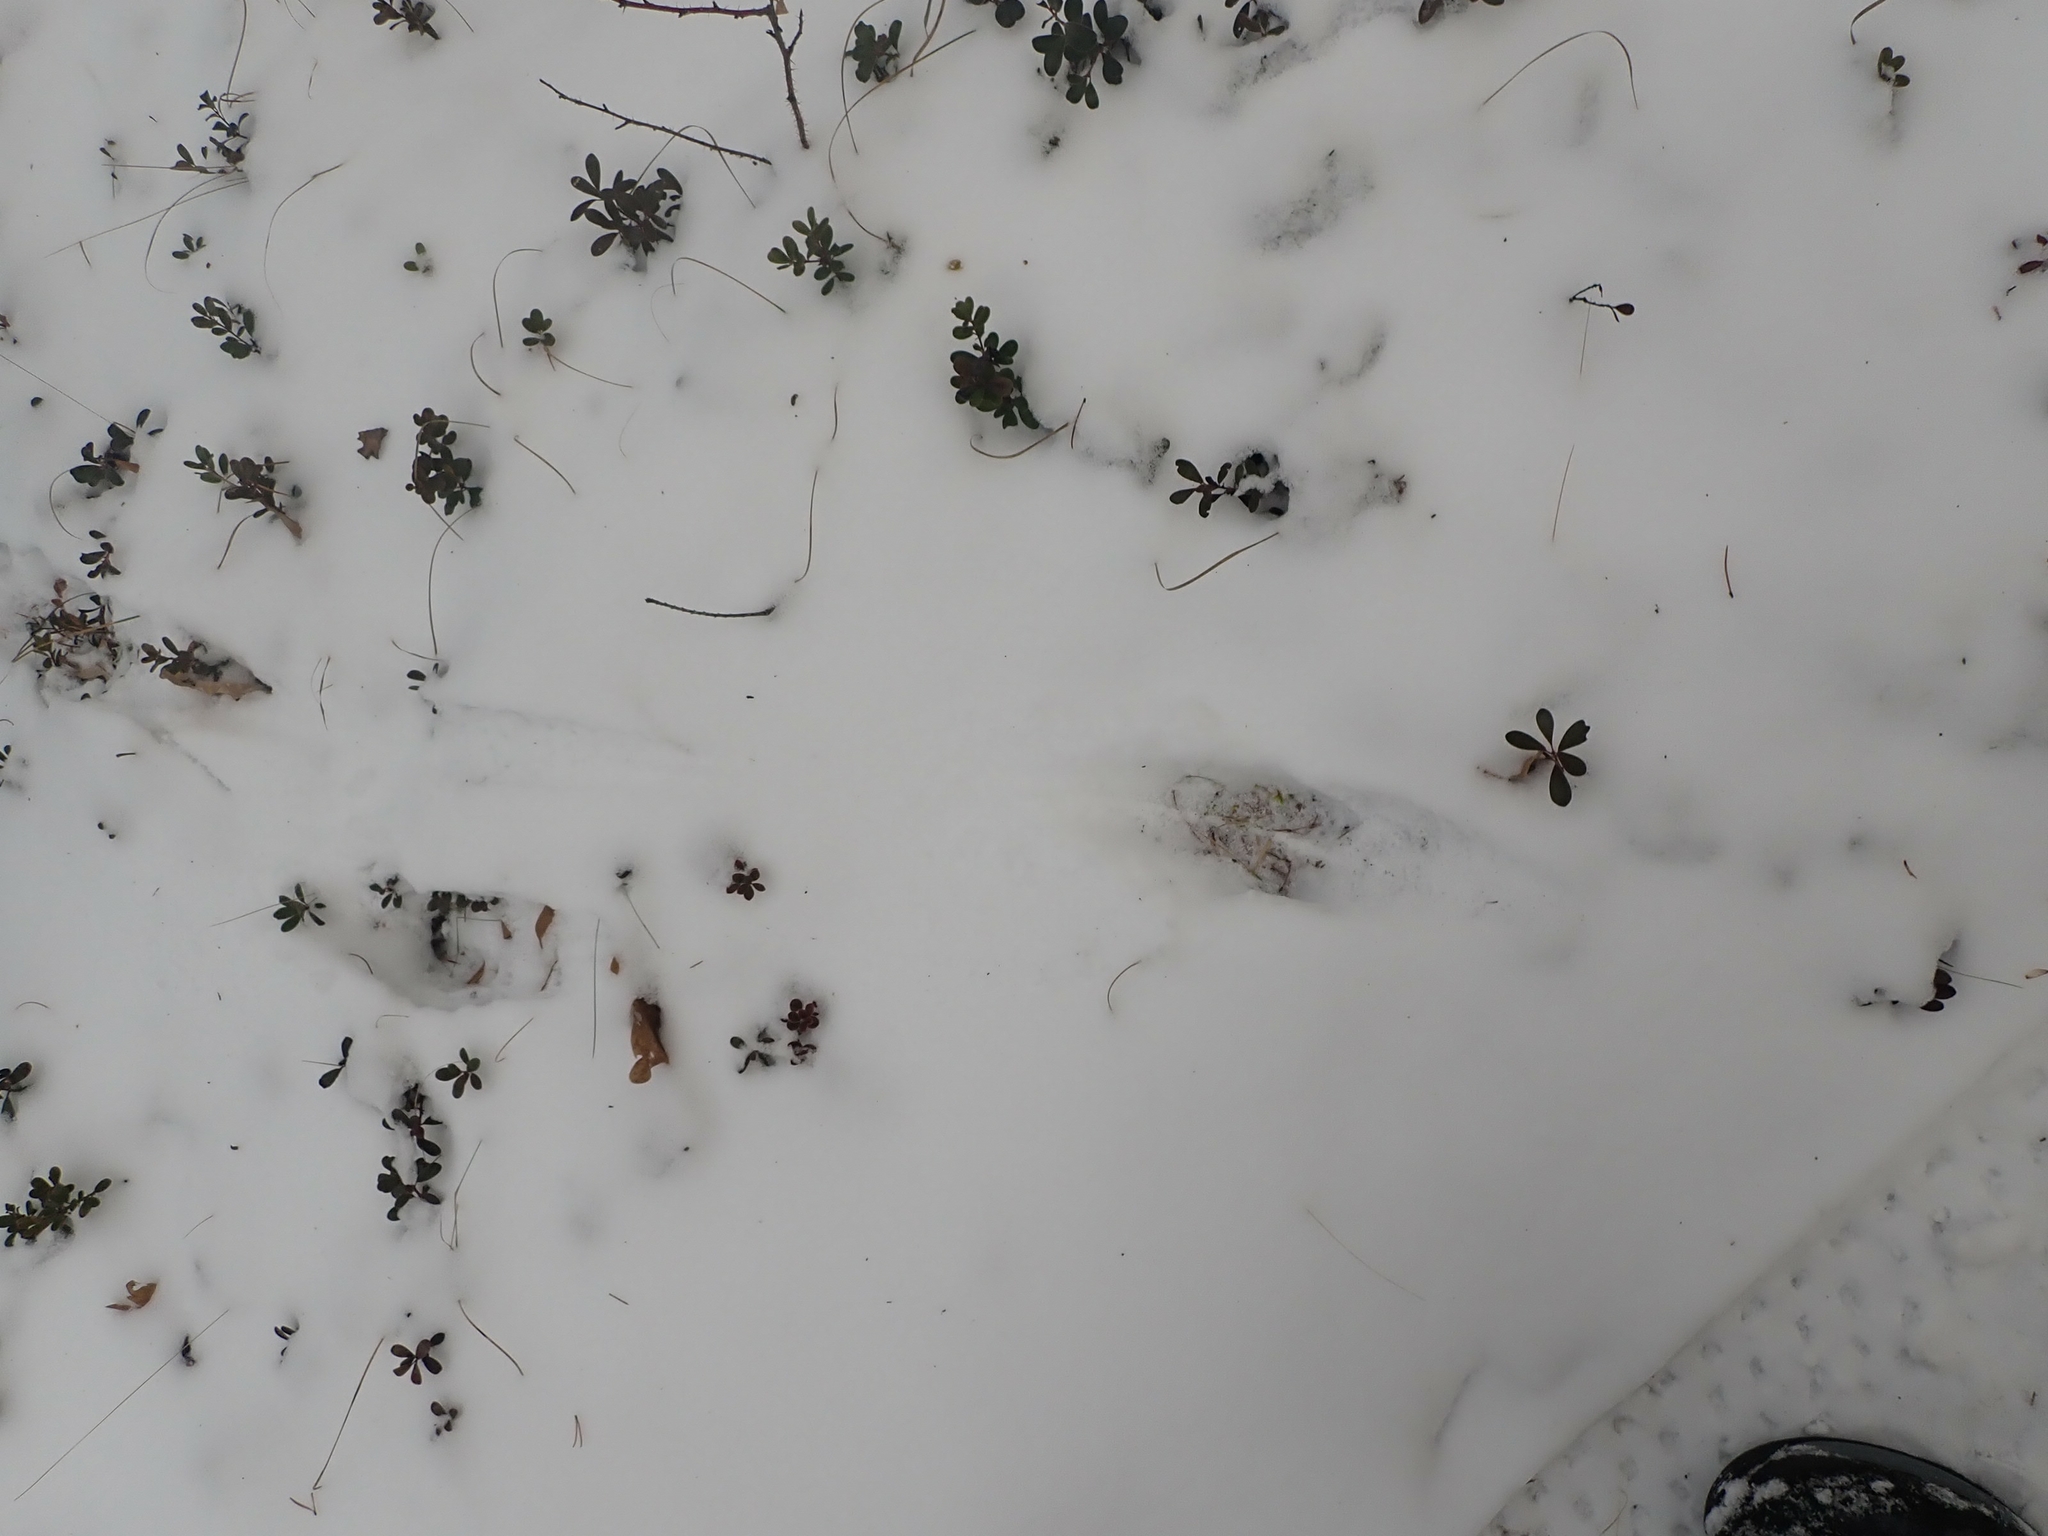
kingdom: Animalia
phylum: Chordata
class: Mammalia
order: Artiodactyla
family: Cervidae
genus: Odocoileus
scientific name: Odocoileus virginianus
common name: White-tailed deer
